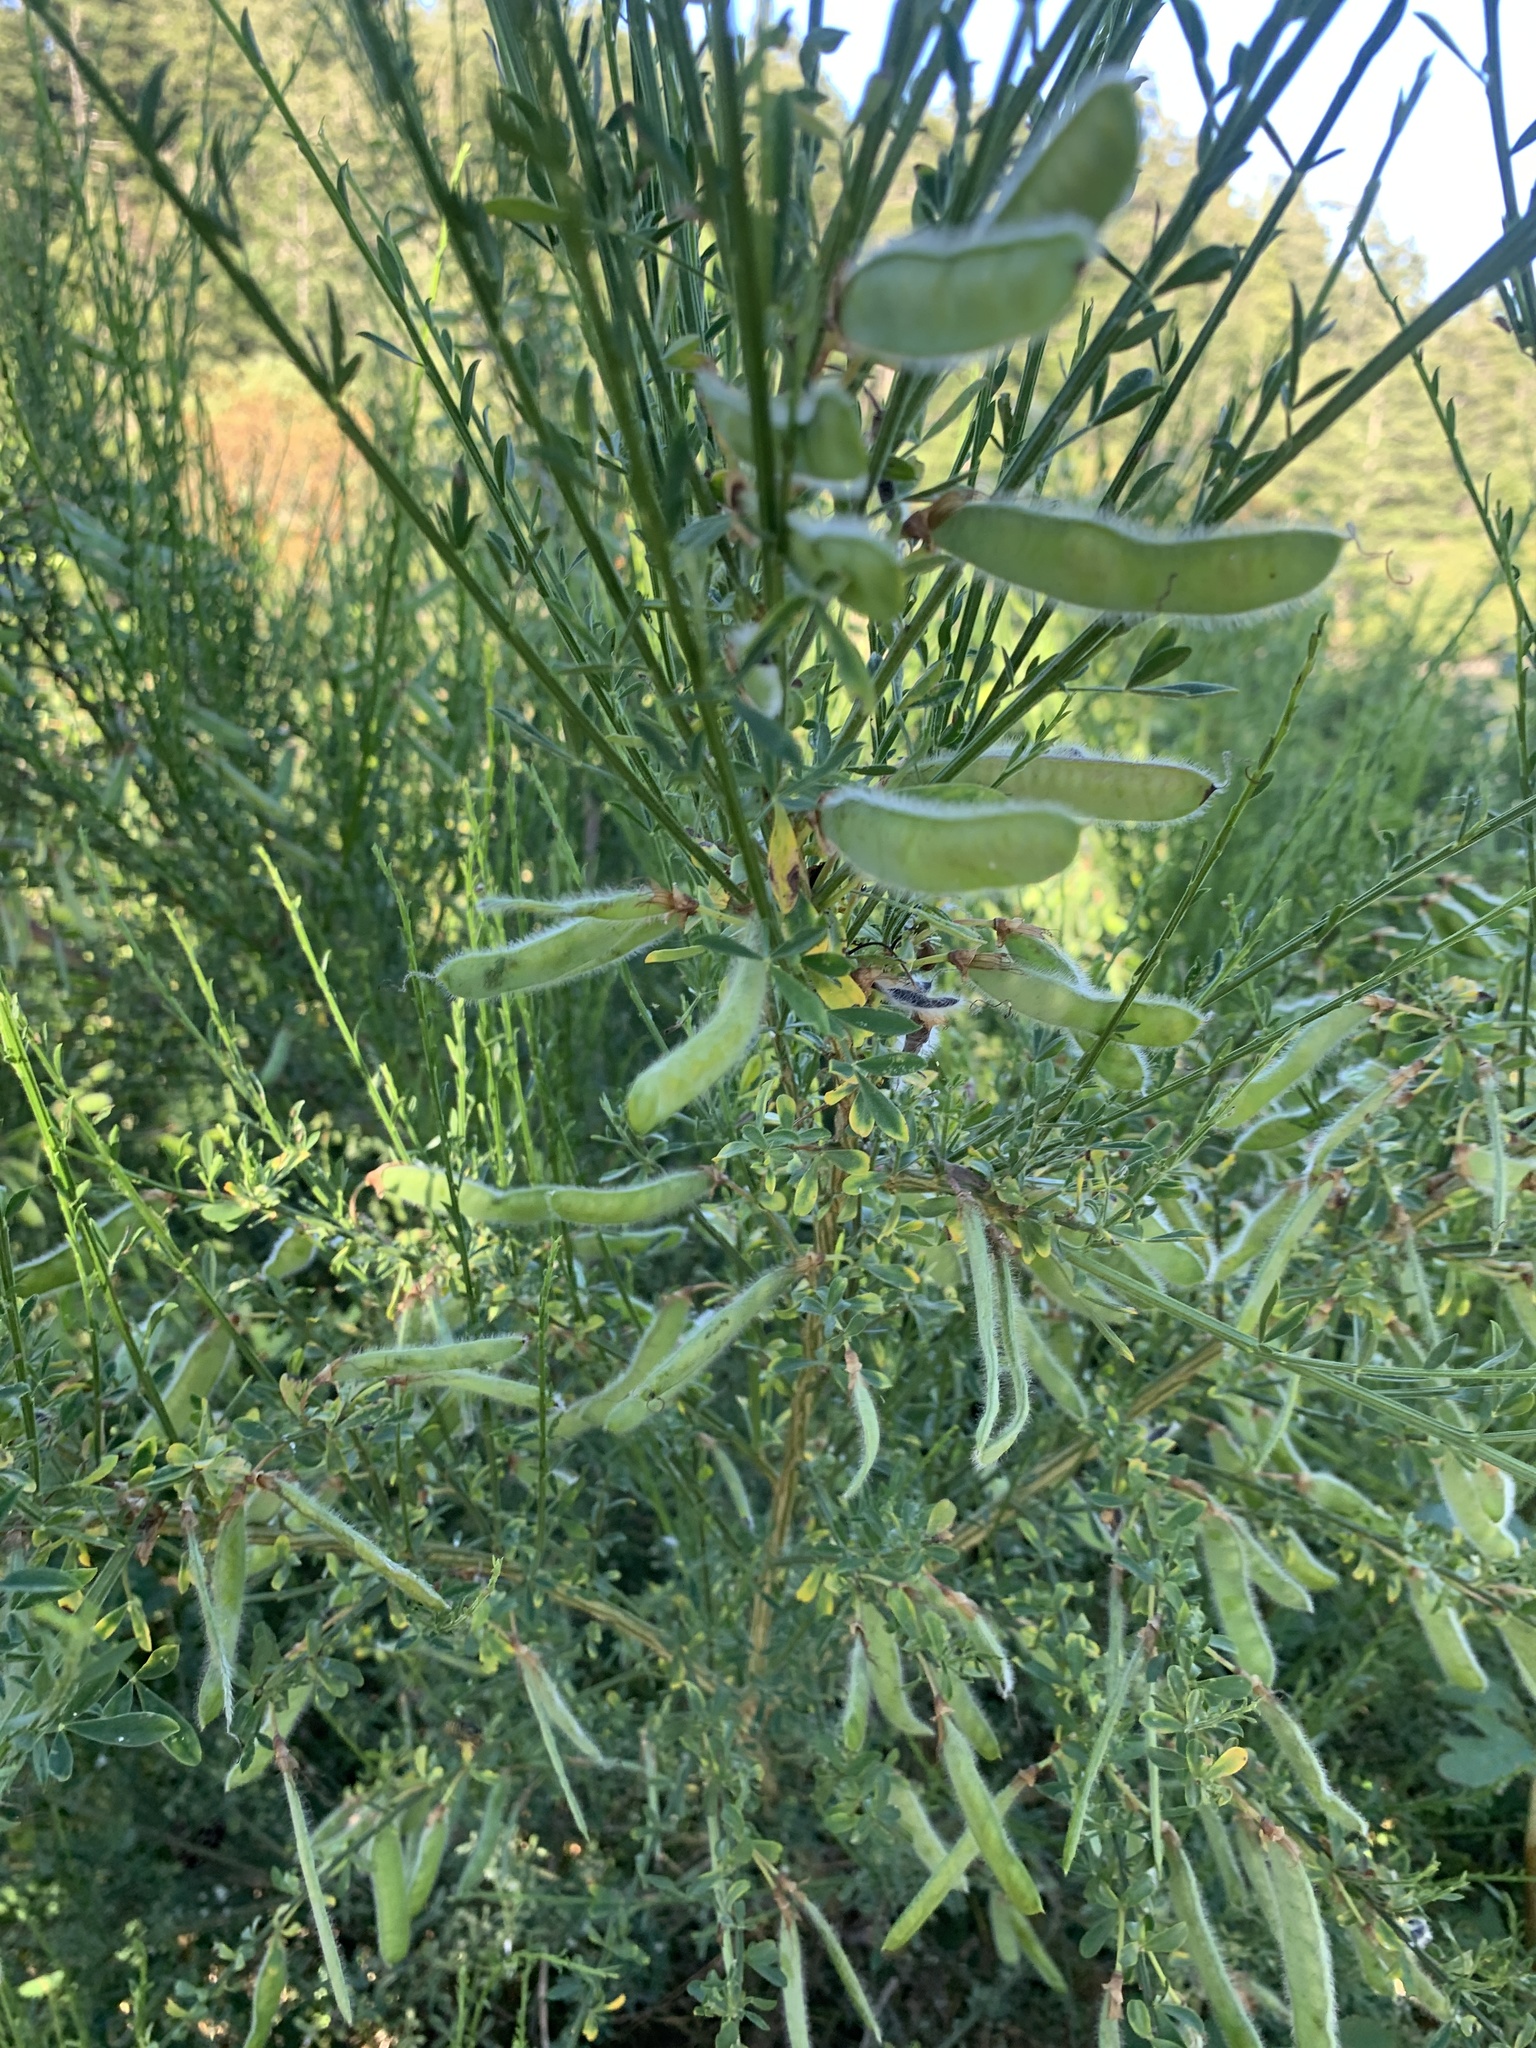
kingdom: Plantae
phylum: Tracheophyta
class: Magnoliopsida
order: Fabales
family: Fabaceae
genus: Cytisus
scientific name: Cytisus scoparius
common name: Scotch broom
